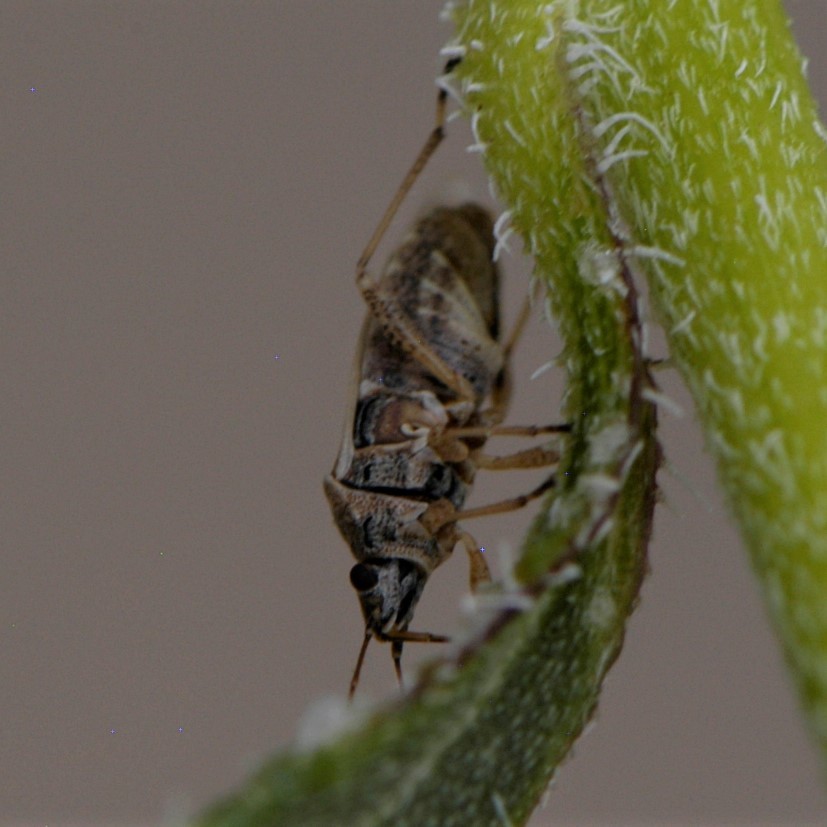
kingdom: Animalia
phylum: Arthropoda
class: Insecta
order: Hemiptera
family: Lygaeidae
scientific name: Lygaeidae
